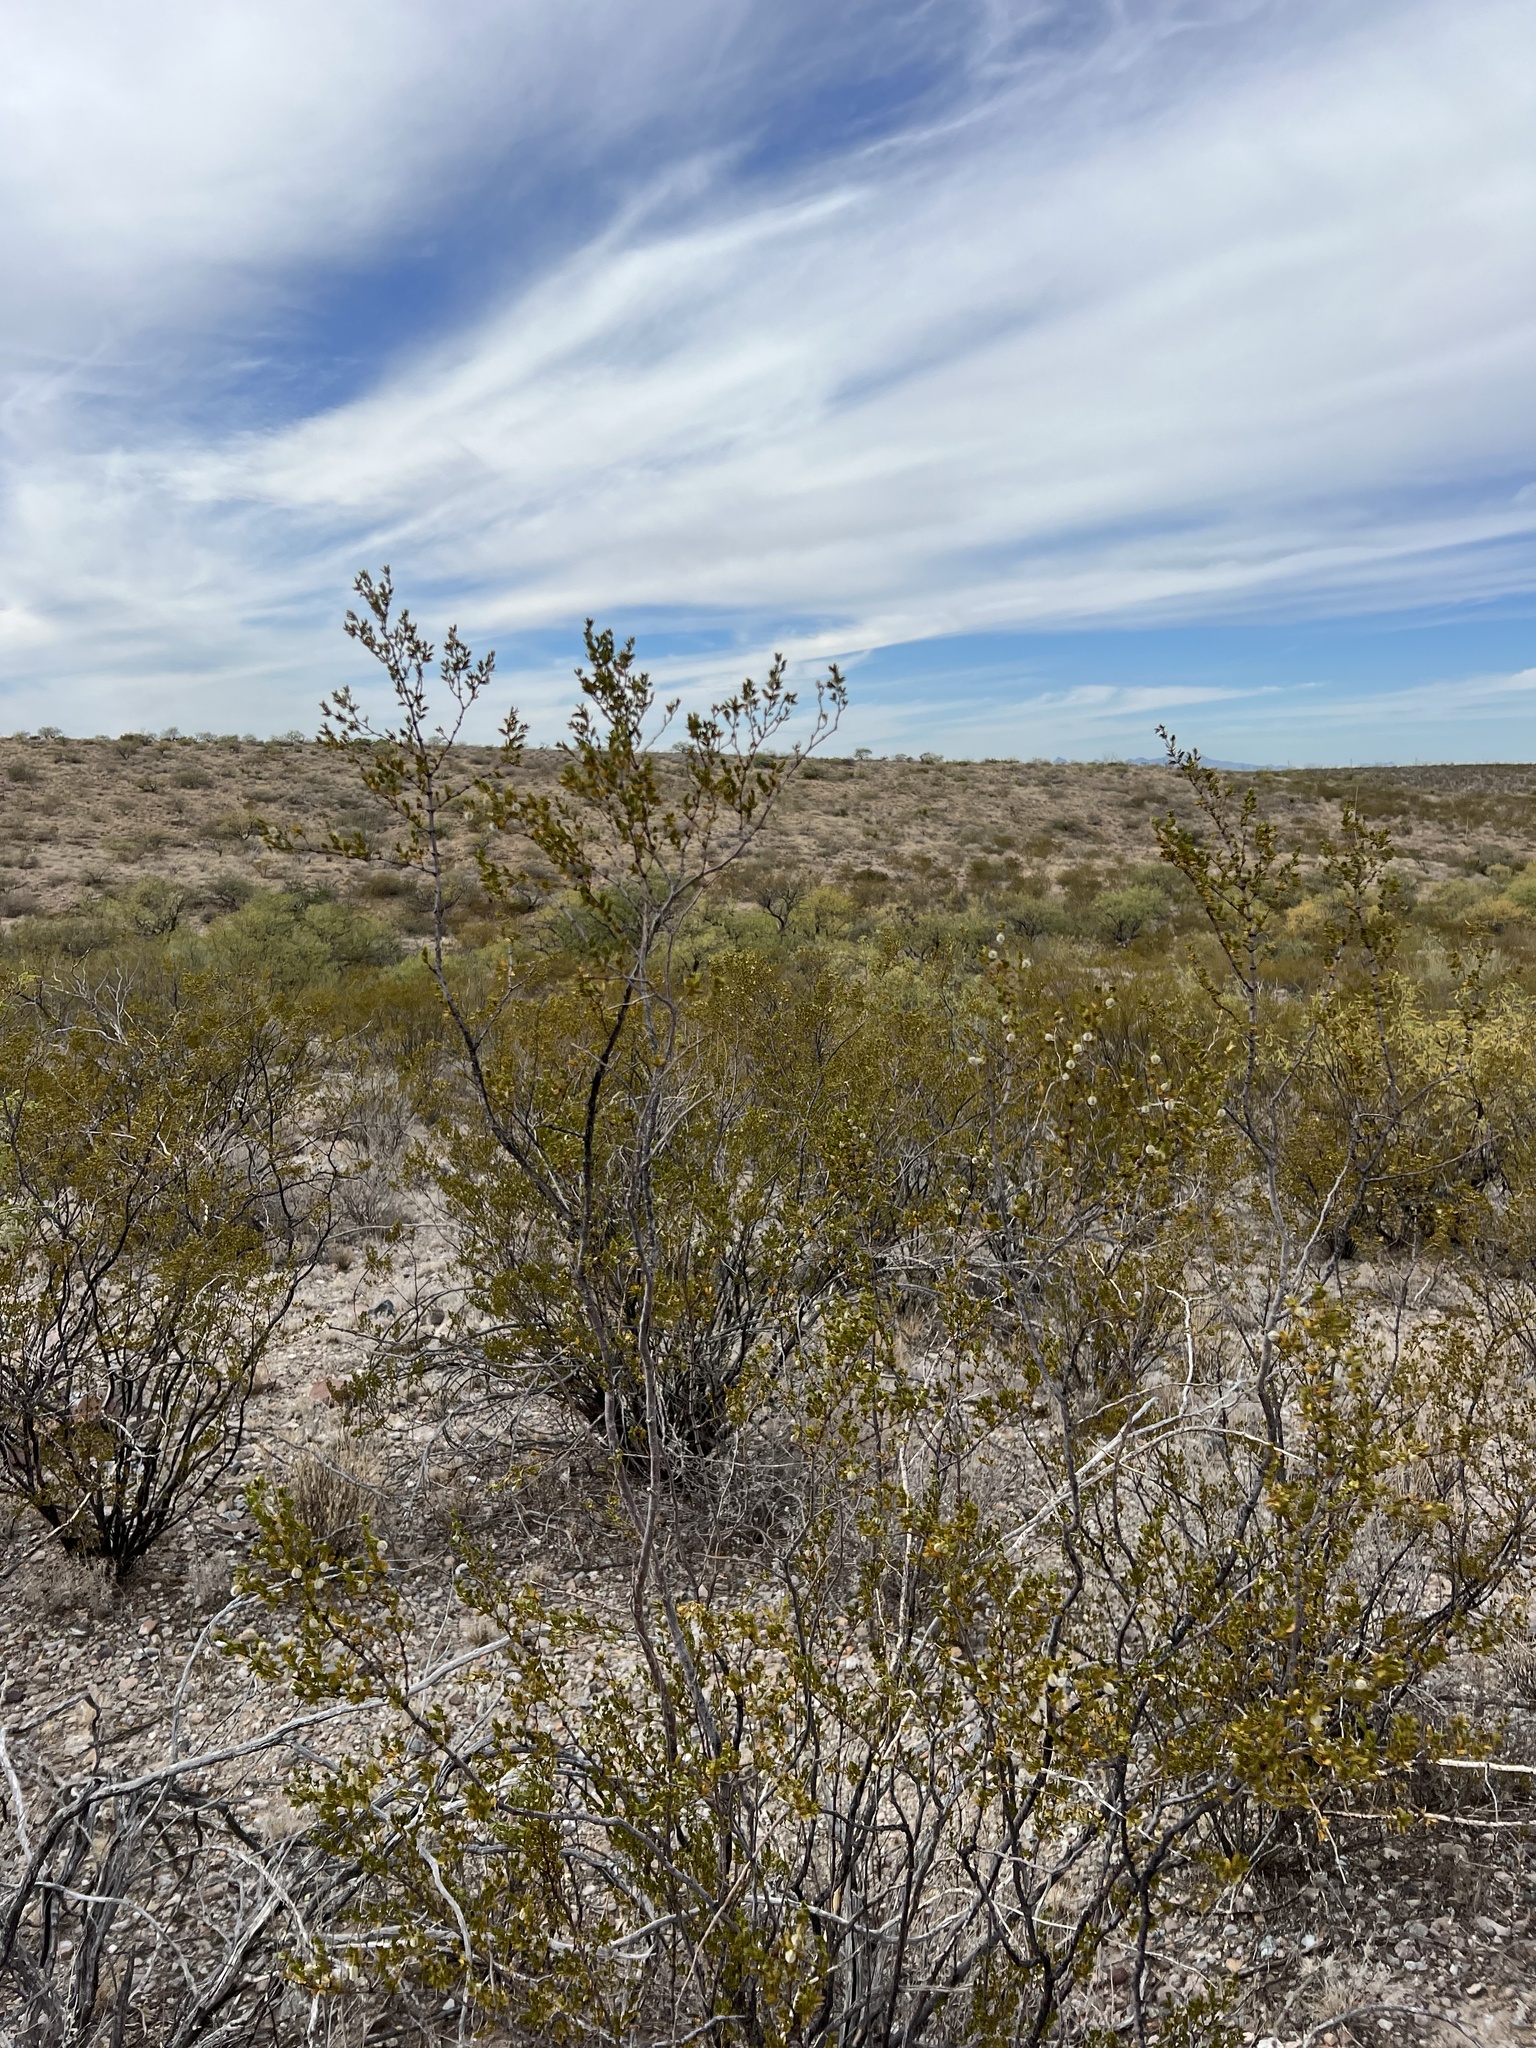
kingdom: Plantae
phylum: Tracheophyta
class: Magnoliopsida
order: Zygophyllales
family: Zygophyllaceae
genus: Larrea
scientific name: Larrea tridentata
